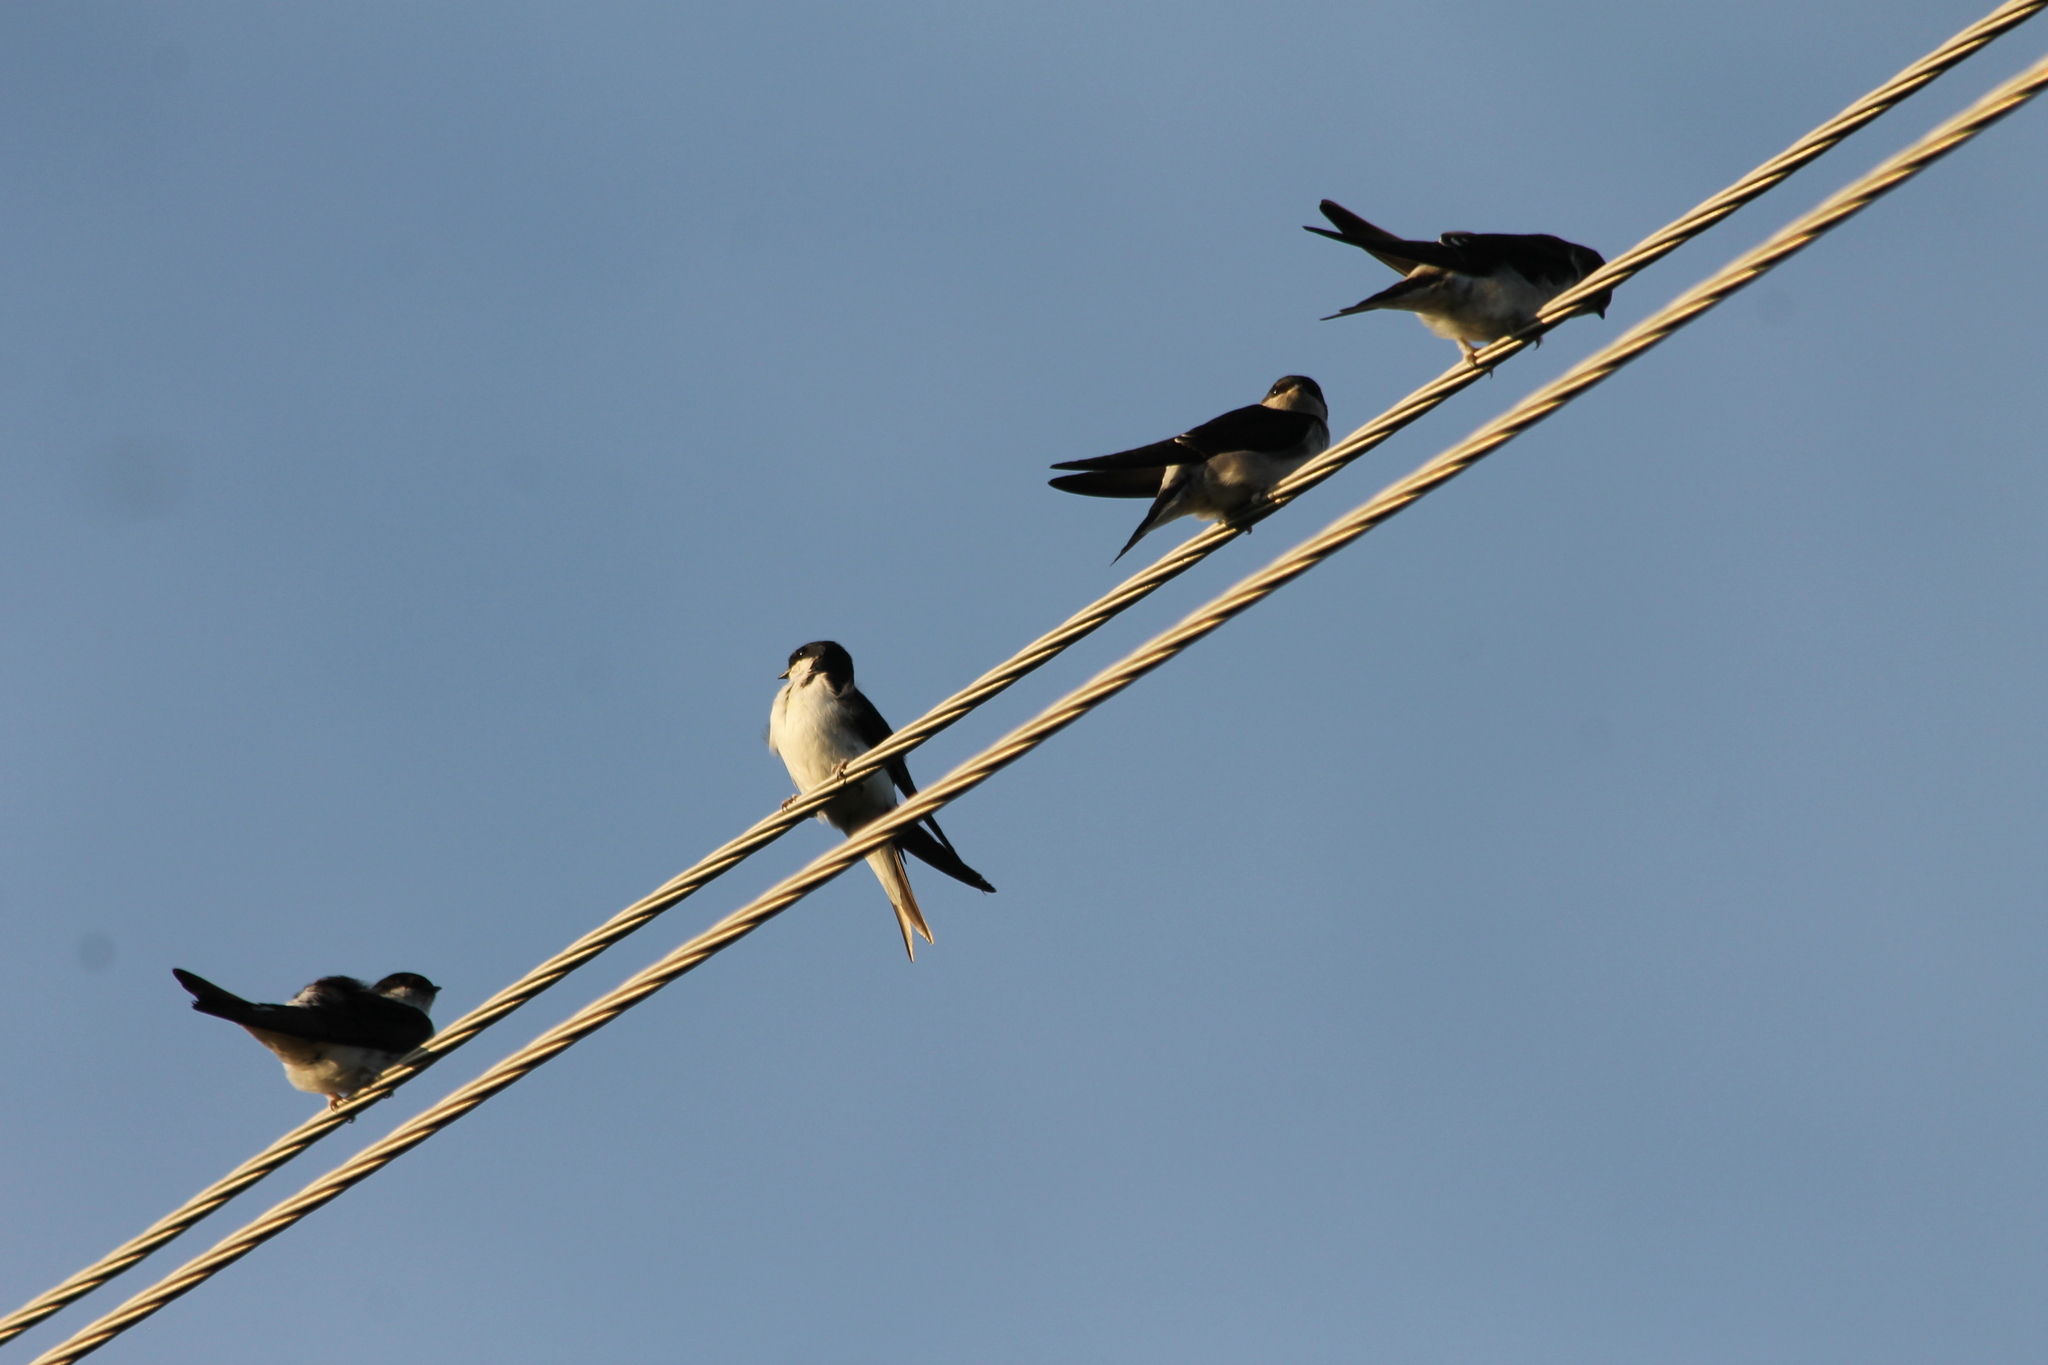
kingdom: Animalia
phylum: Chordata
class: Aves
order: Passeriformes
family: Hirundinidae
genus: Delichon
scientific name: Delichon urbicum
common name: Common house martin
